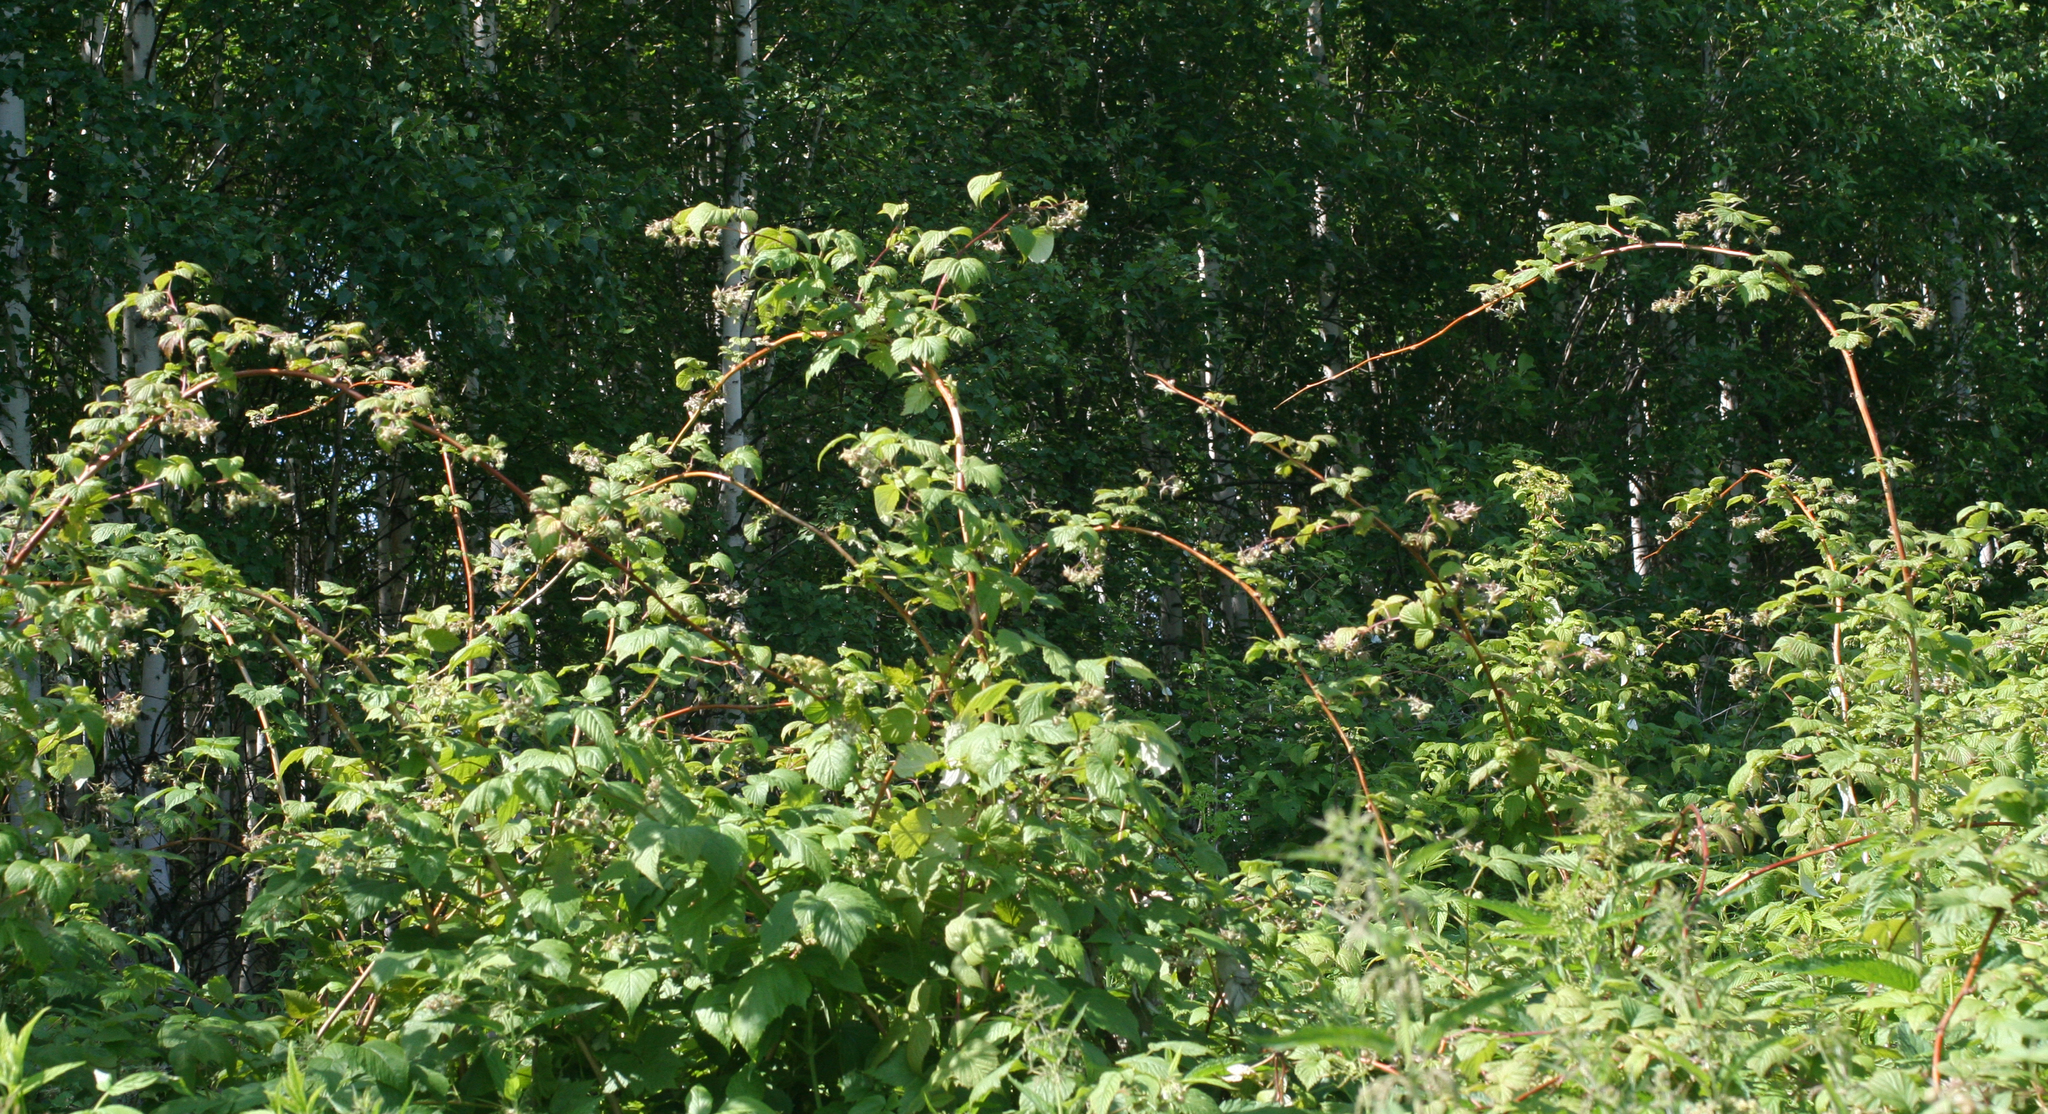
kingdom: Plantae
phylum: Tracheophyta
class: Magnoliopsida
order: Rosales
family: Rosaceae
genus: Rubus
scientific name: Rubus idaeus
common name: Raspberry
